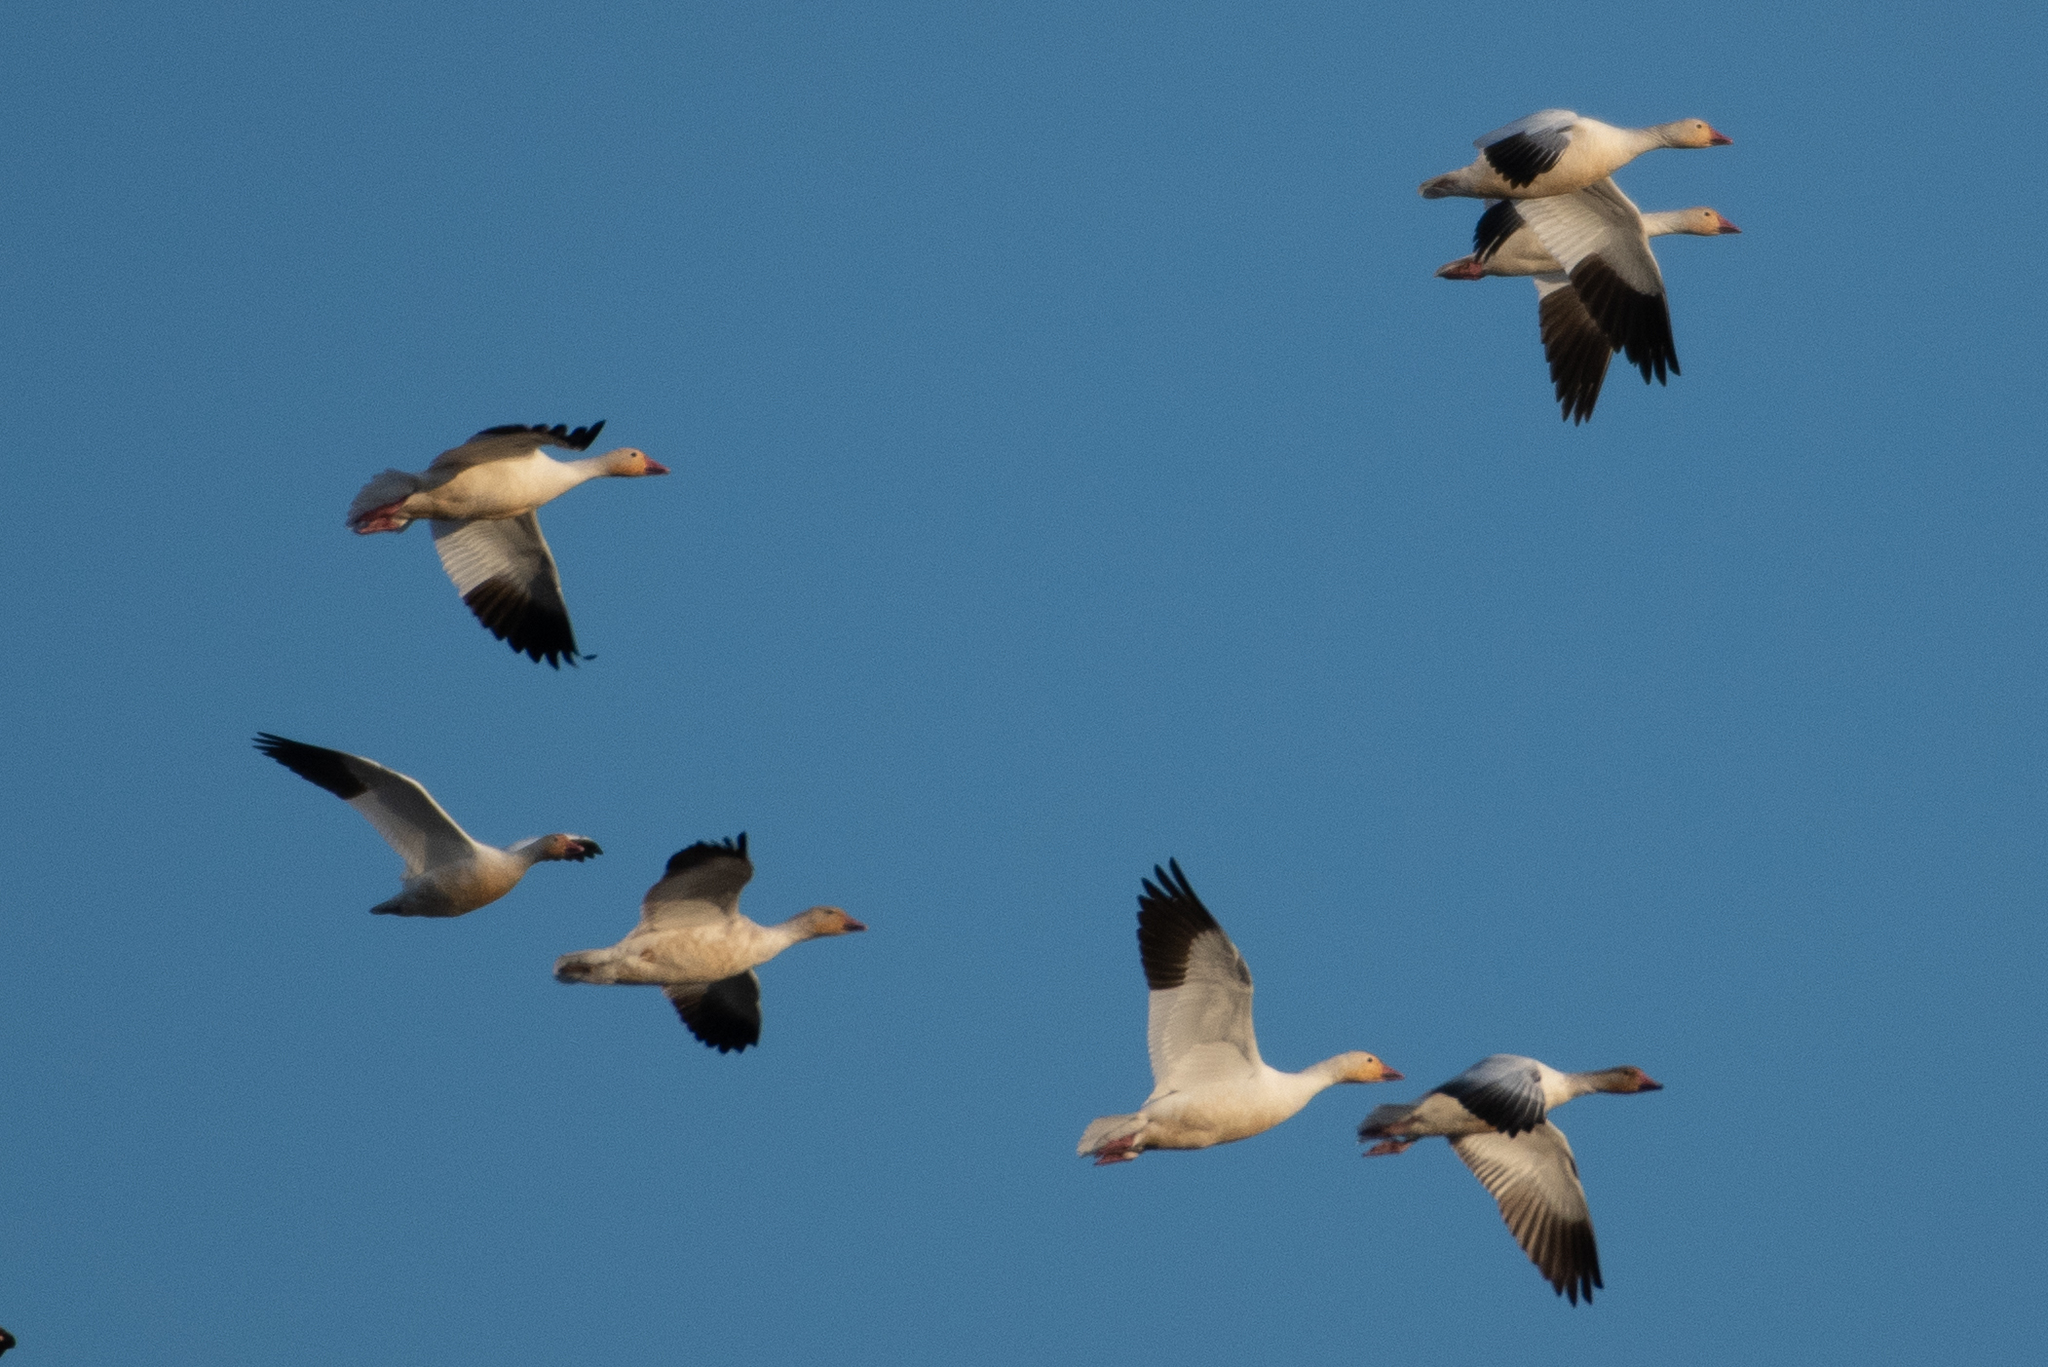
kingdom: Animalia
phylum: Chordata
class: Aves
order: Anseriformes
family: Anatidae
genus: Anser
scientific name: Anser caerulescens
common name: Snow goose
